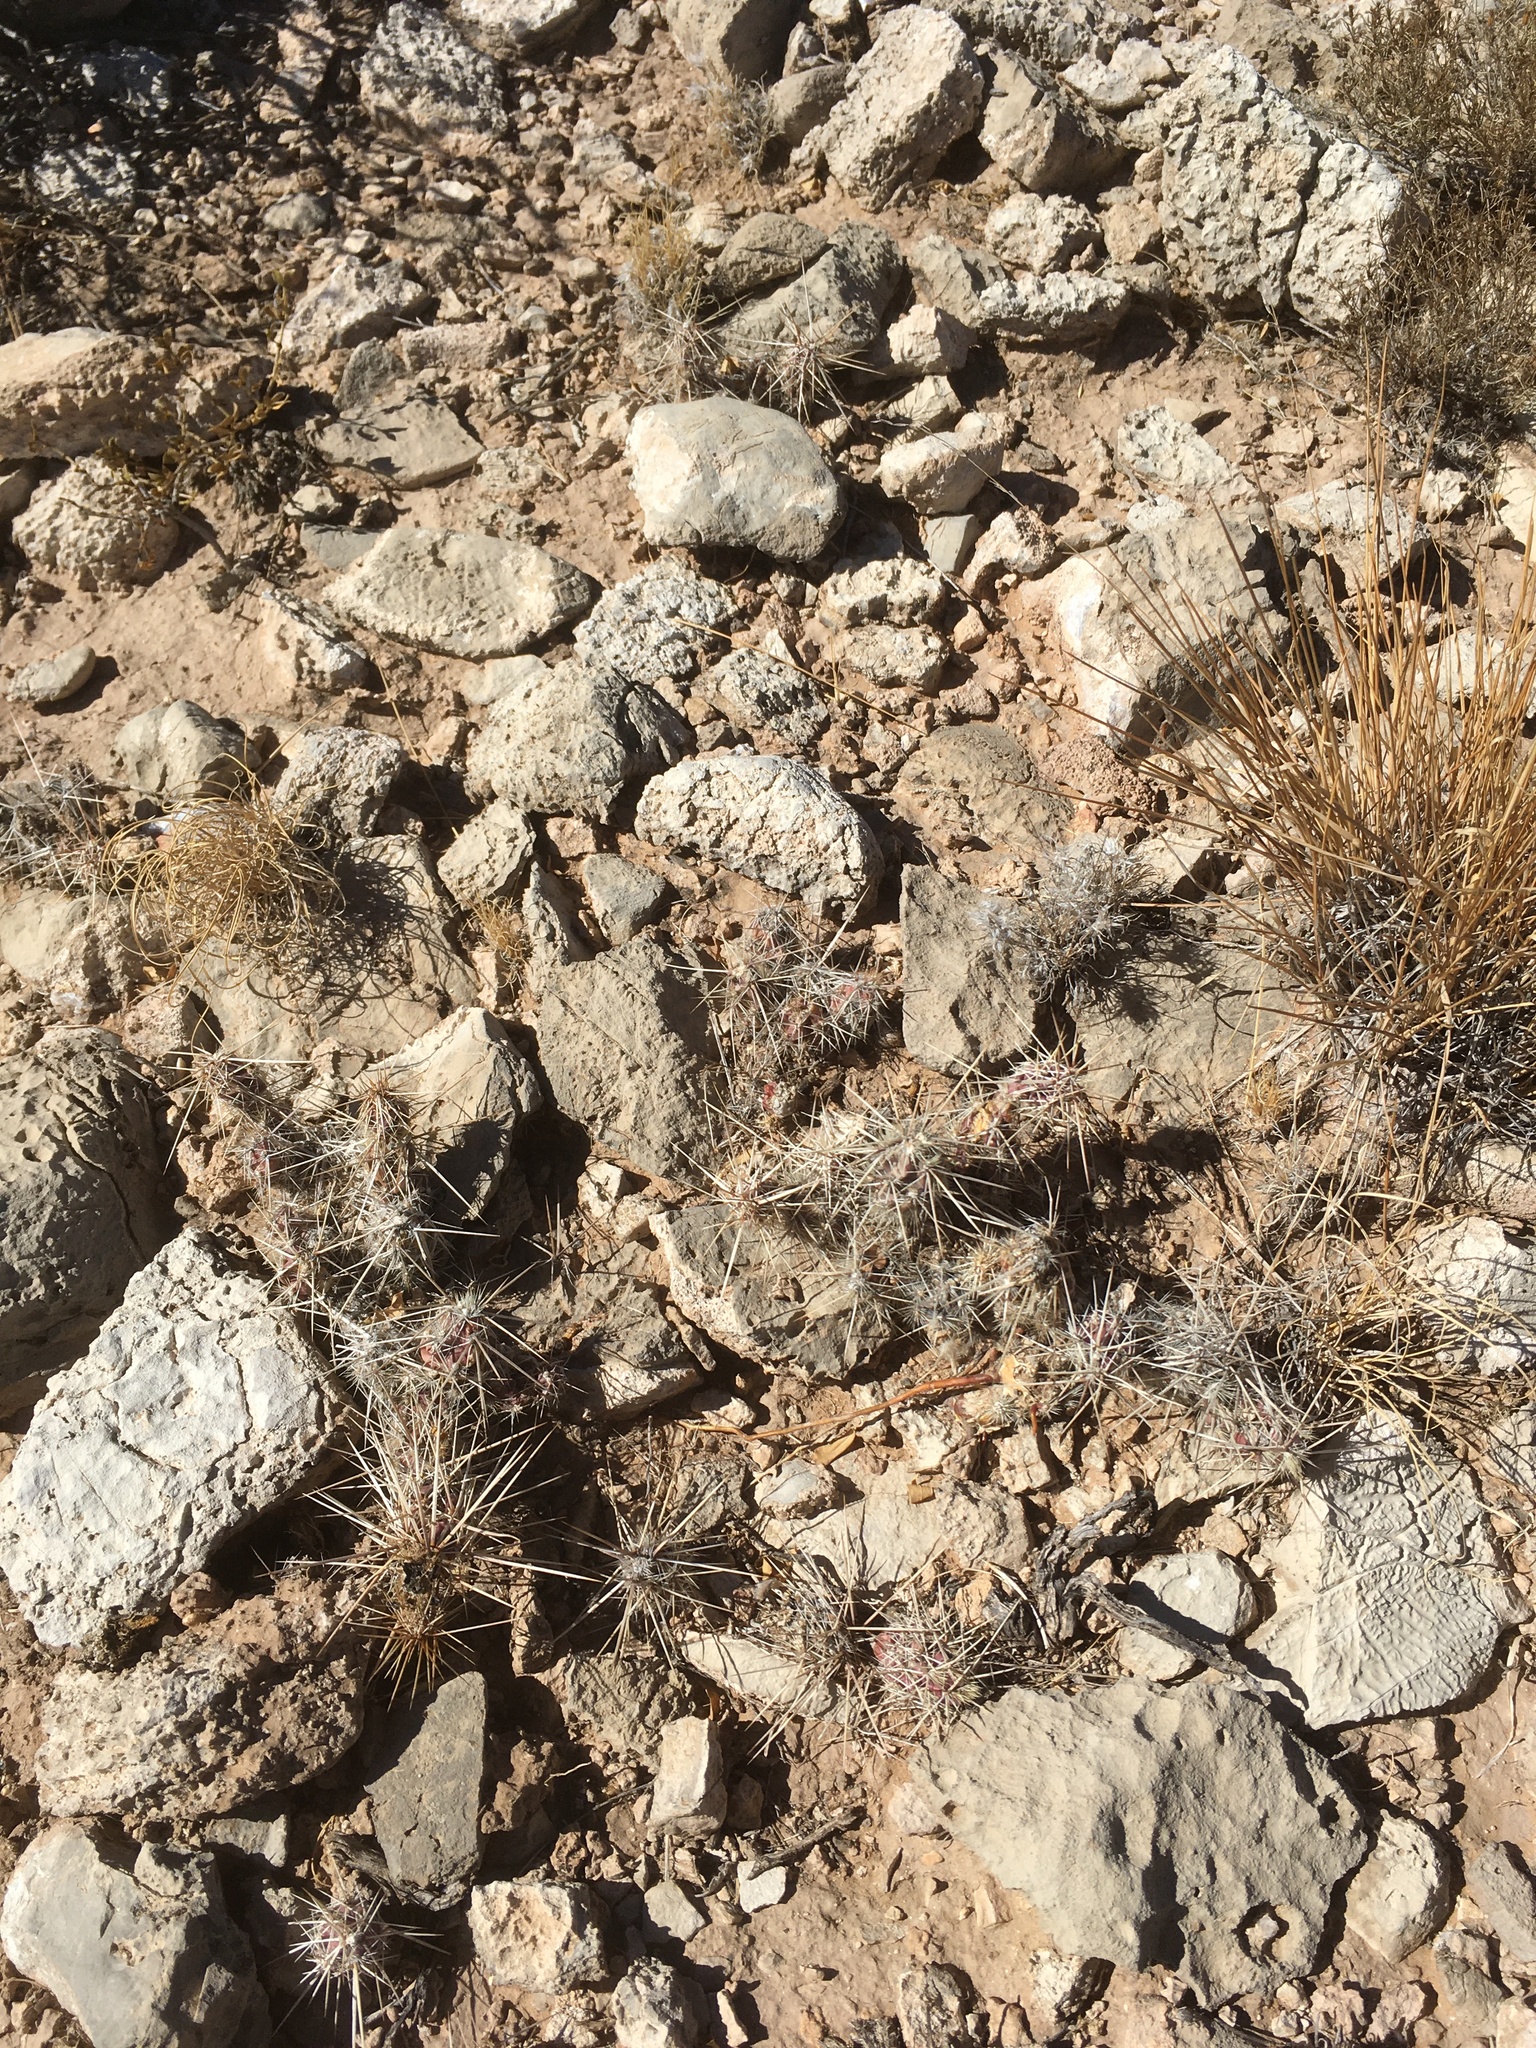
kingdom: Plantae
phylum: Tracheophyta
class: Magnoliopsida
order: Caryophyllales
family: Cactaceae
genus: Grusonia
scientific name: Grusonia grahamii
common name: Graham's club cactus
